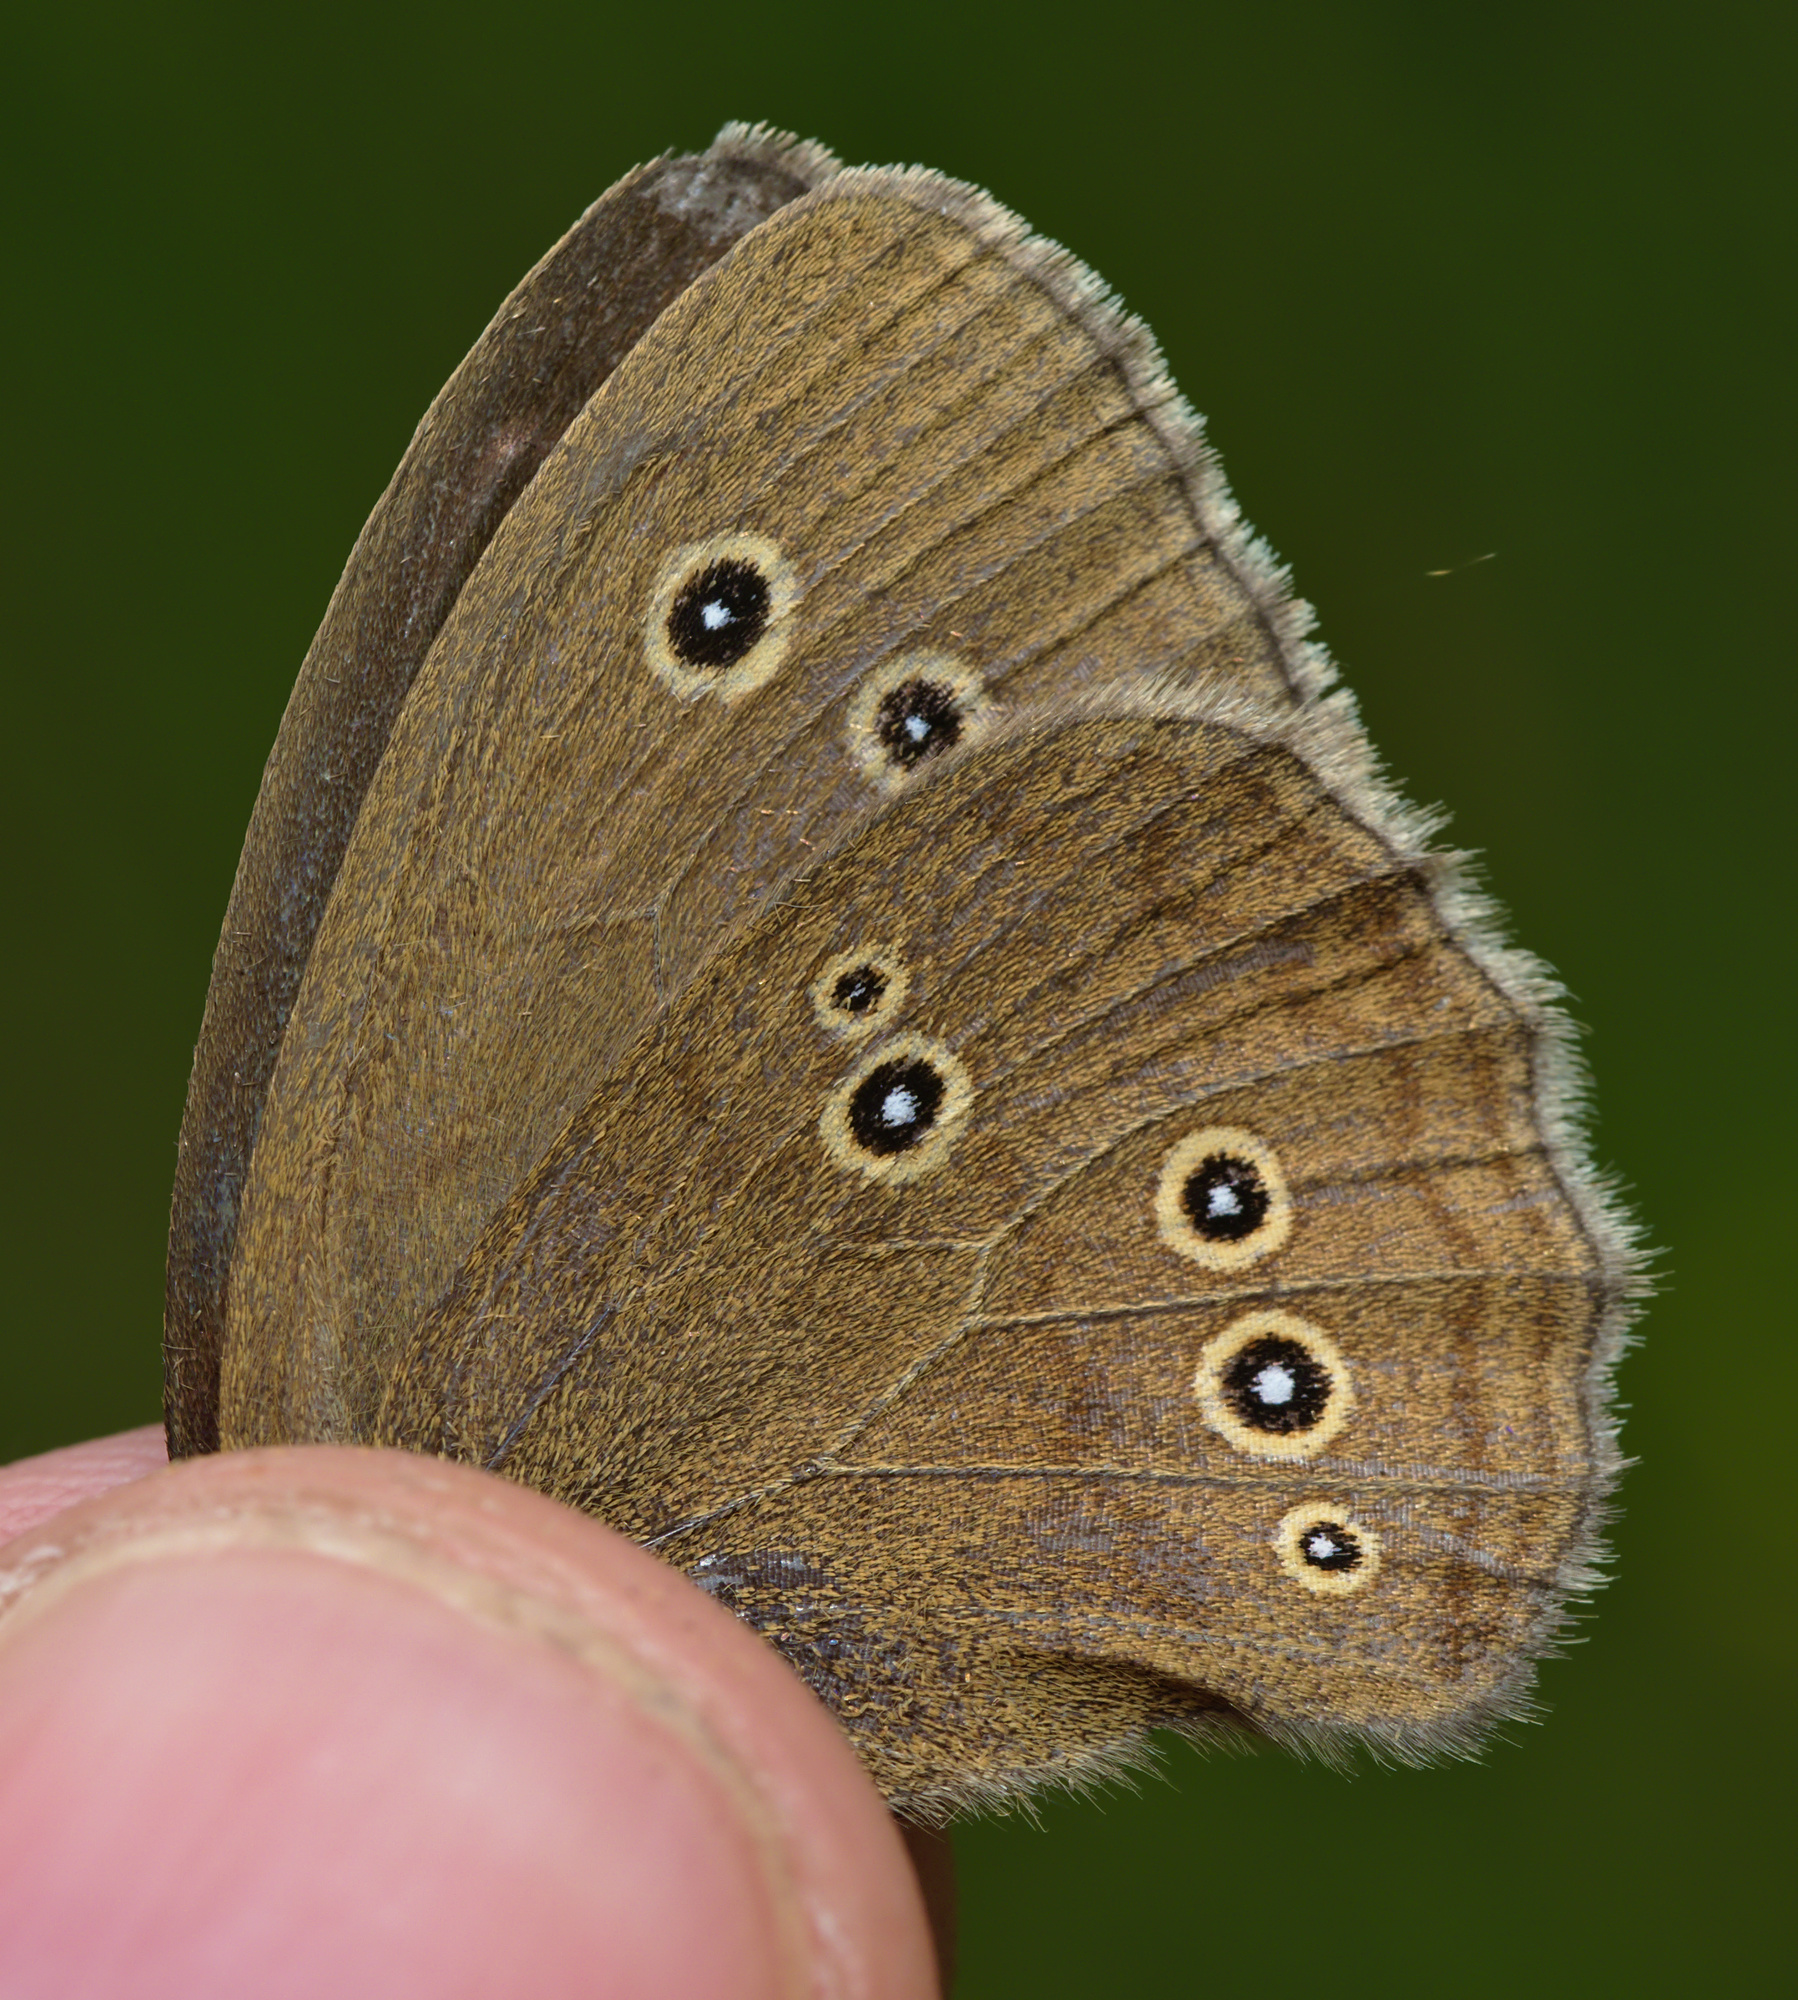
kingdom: Animalia
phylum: Arthropoda
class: Insecta
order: Lepidoptera
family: Nymphalidae
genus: Aphantopus
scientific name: Aphantopus hyperantus
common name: Ringlet
